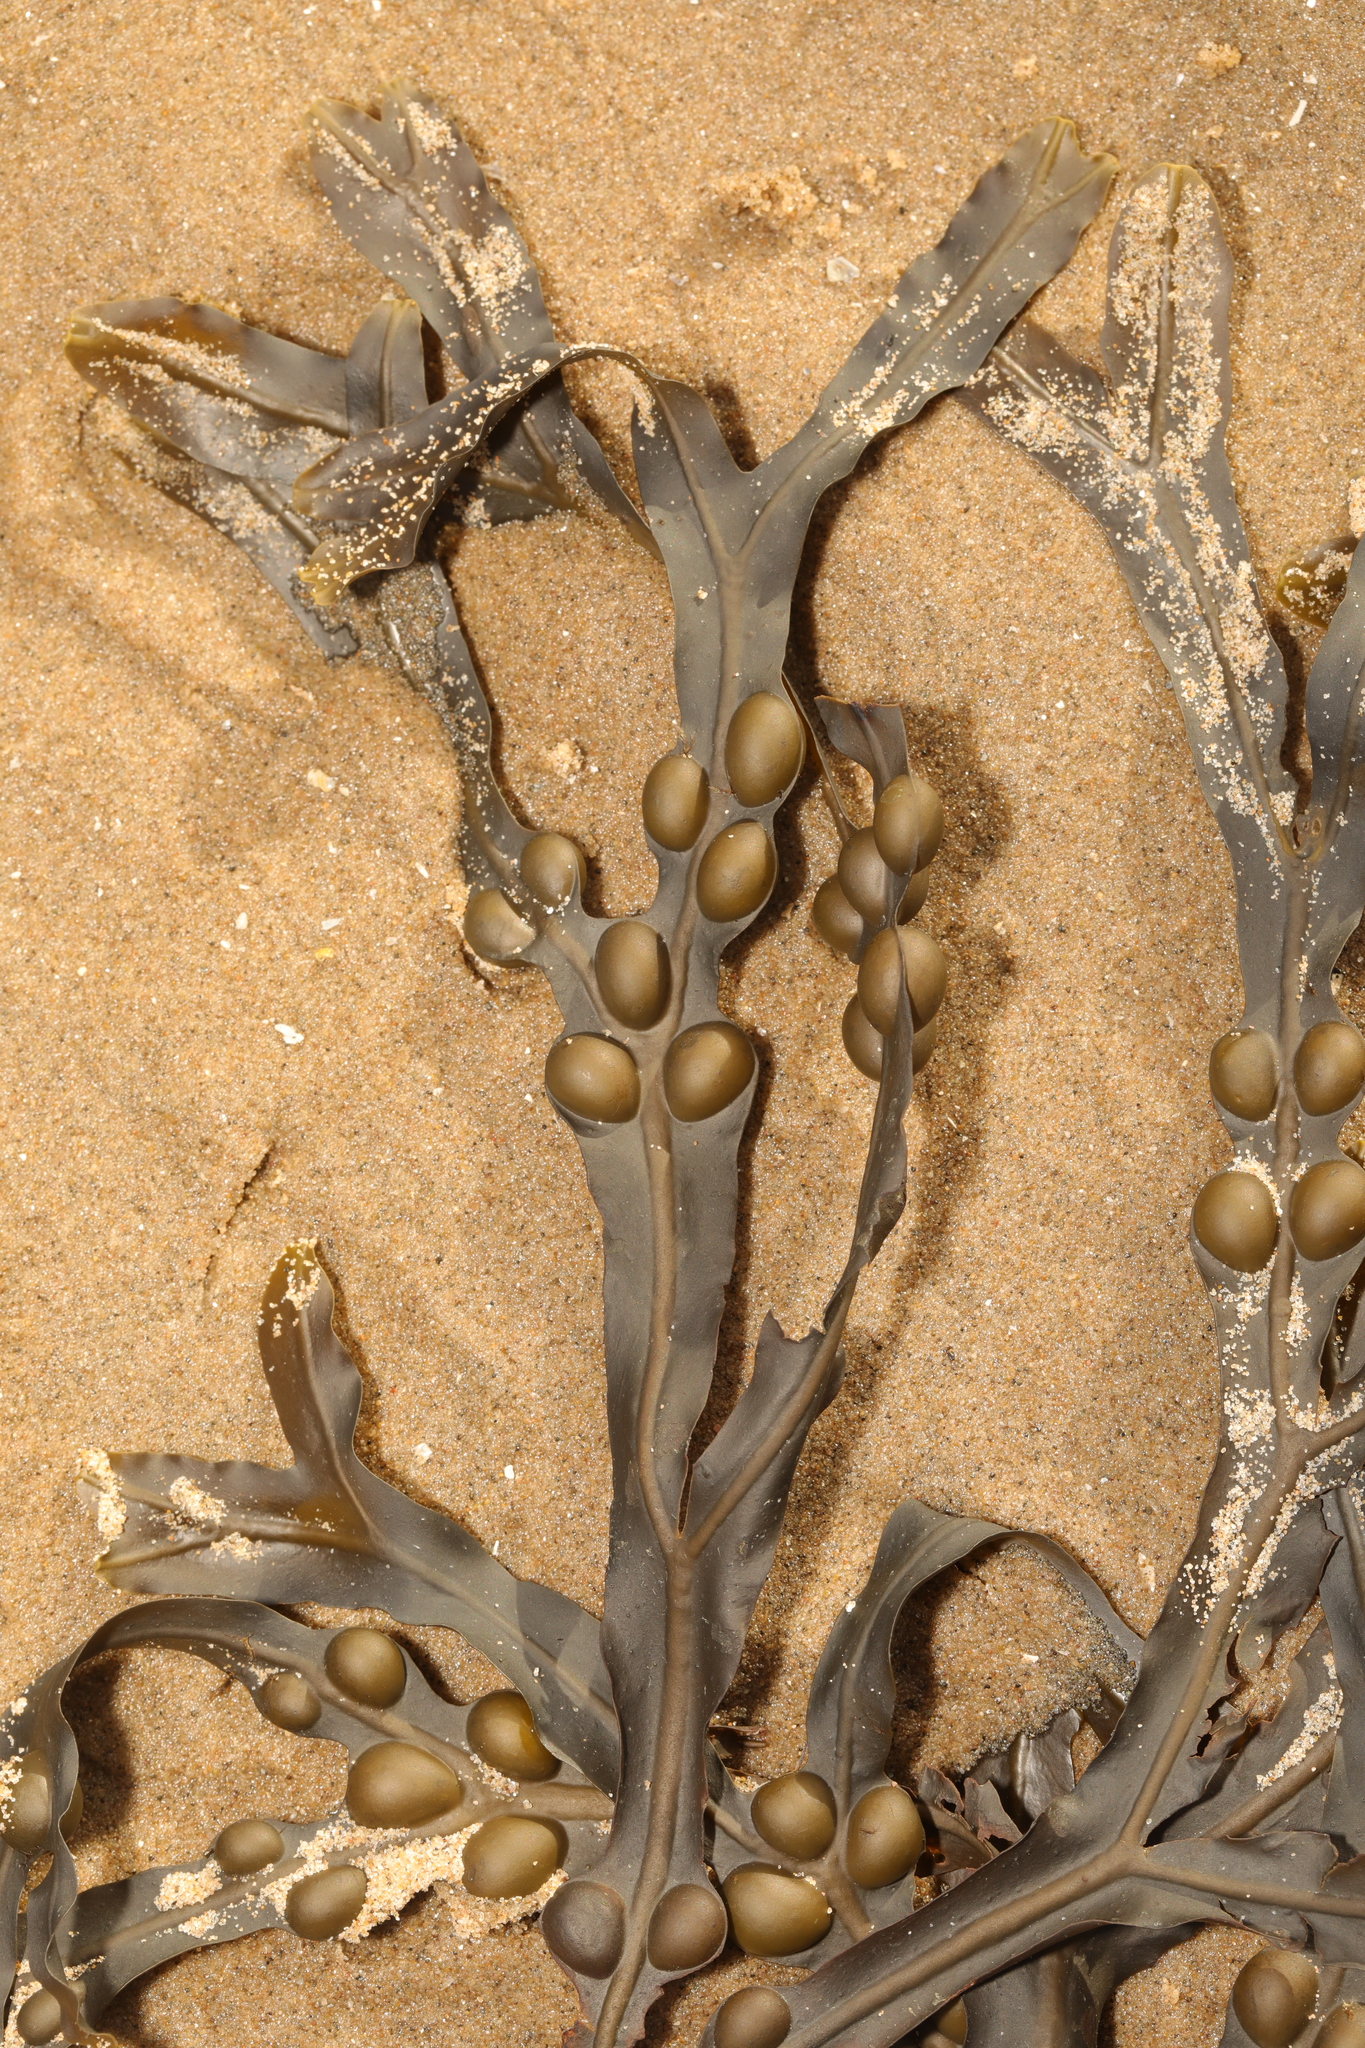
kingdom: Chromista
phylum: Ochrophyta
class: Phaeophyceae
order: Fucales
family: Fucaceae
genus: Fucus
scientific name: Fucus vesiculosus
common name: Bladder wrack
